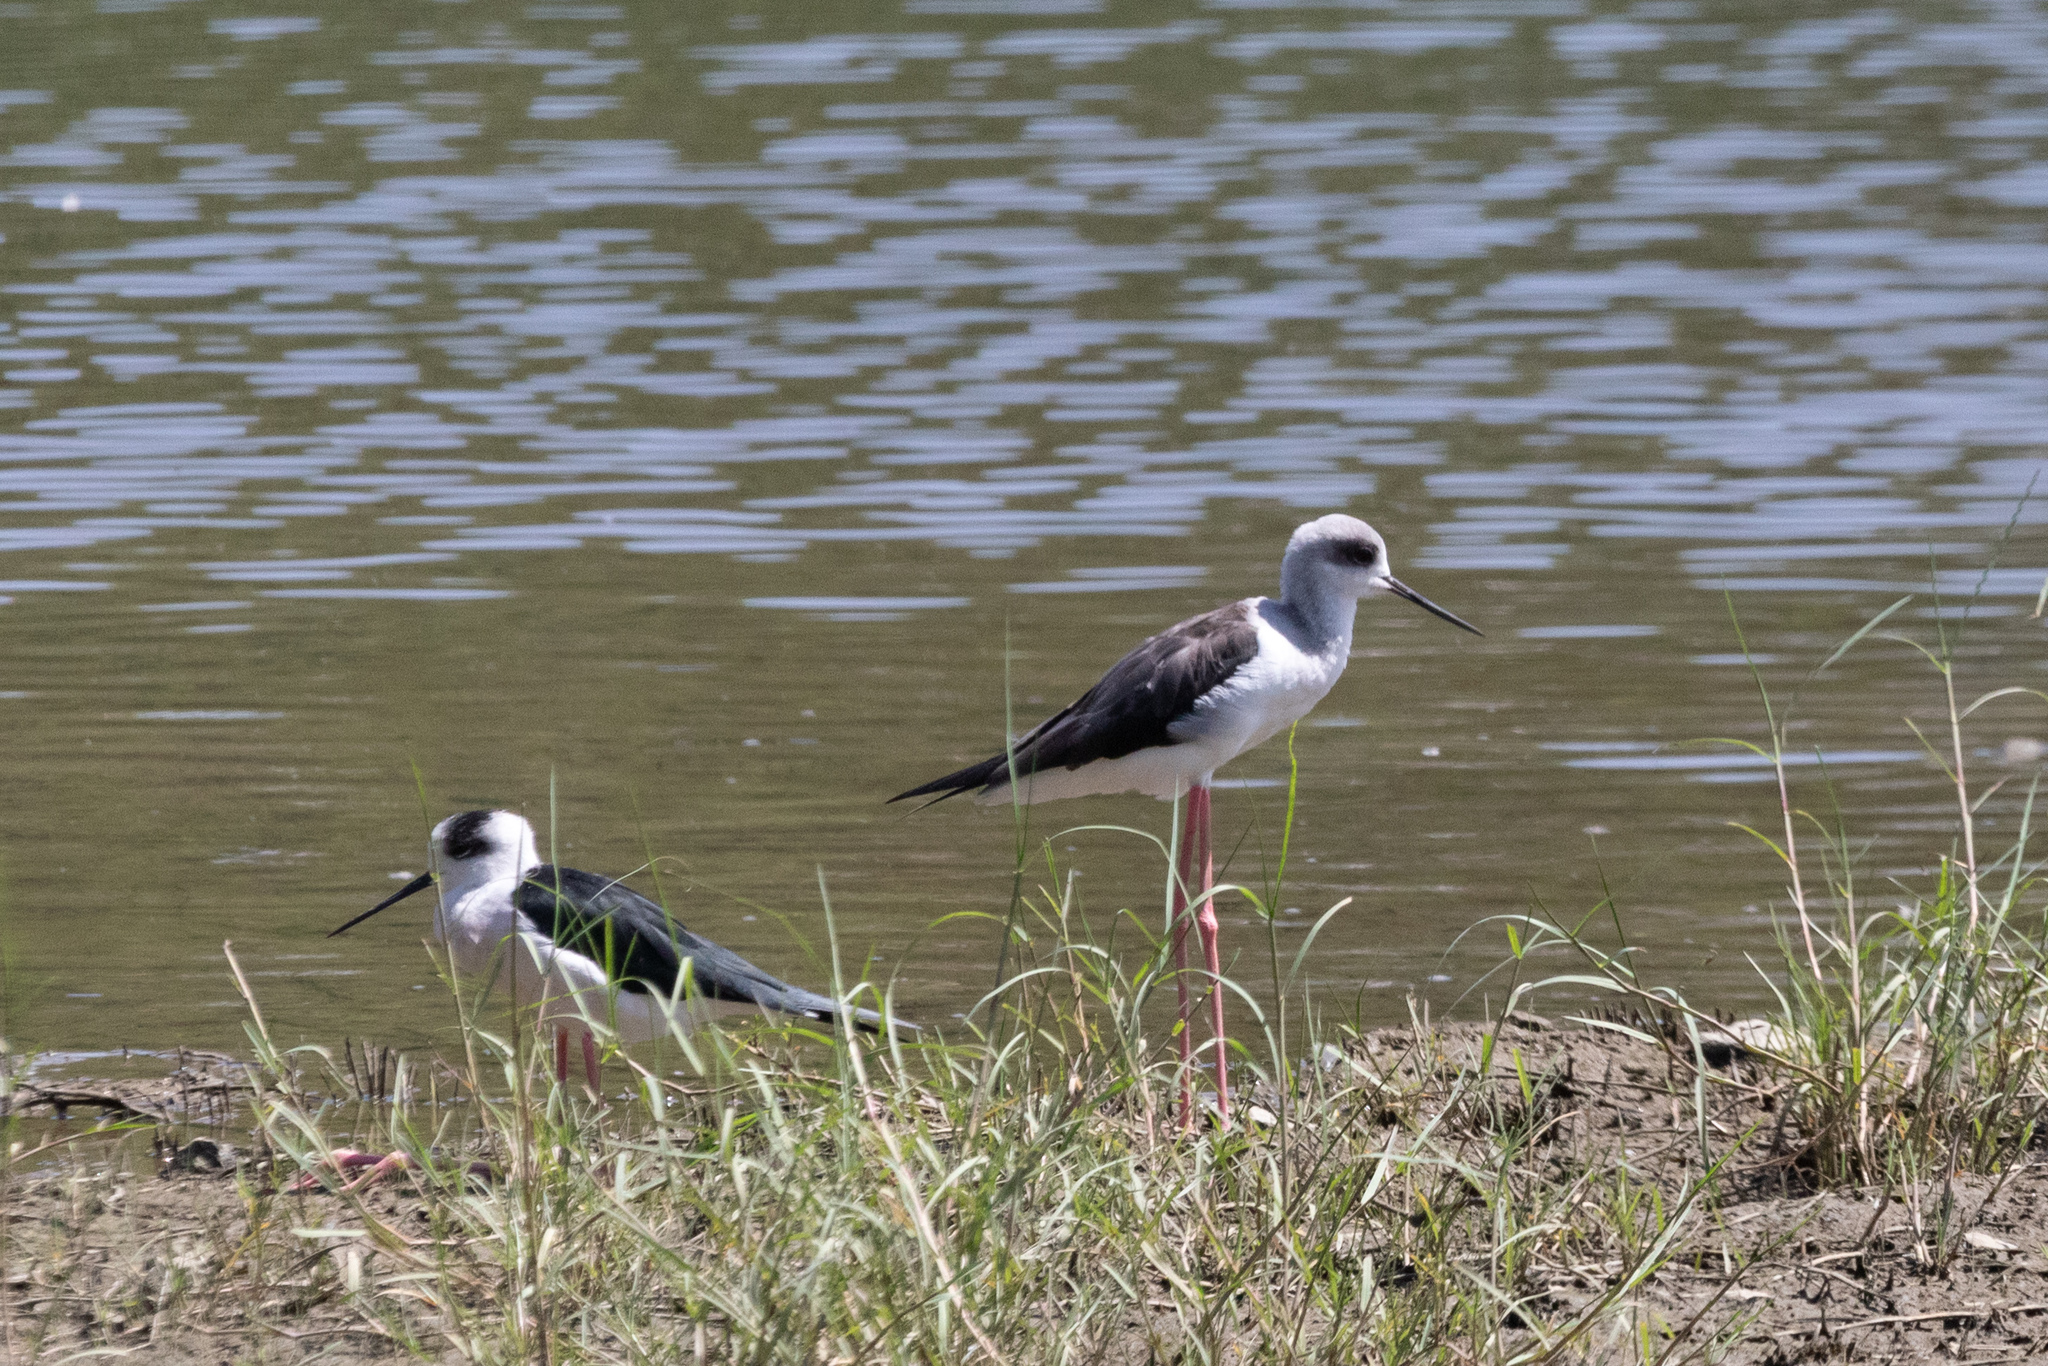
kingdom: Animalia
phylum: Chordata
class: Aves
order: Charadriiformes
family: Recurvirostridae
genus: Himantopus
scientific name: Himantopus himantopus
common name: Black-winged stilt
